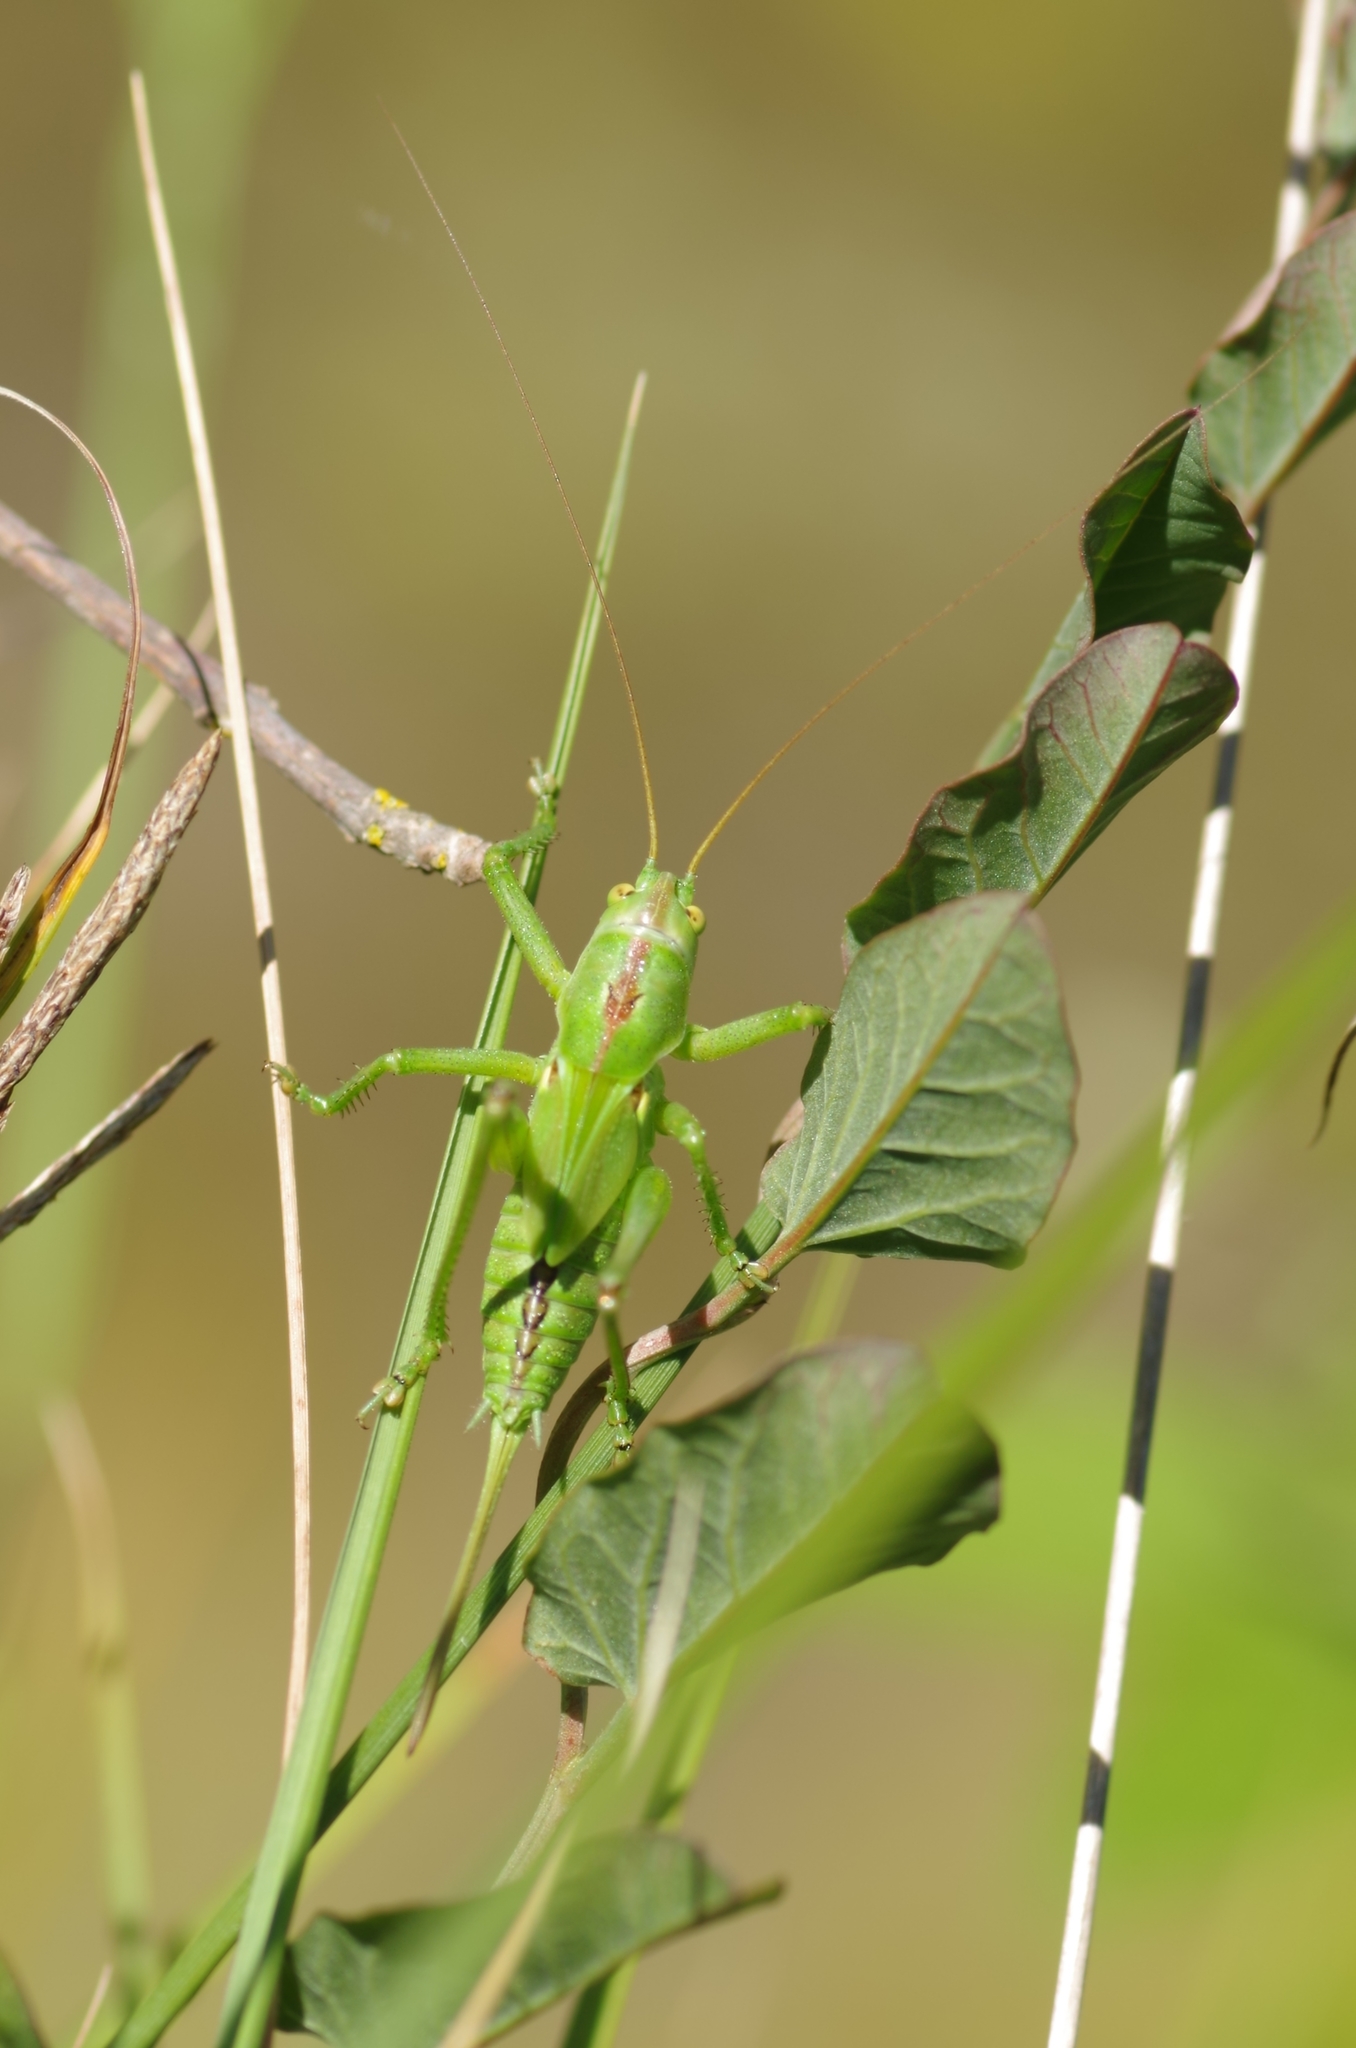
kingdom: Animalia
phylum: Arthropoda
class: Insecta
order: Orthoptera
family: Tettigoniidae
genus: Tettigonia
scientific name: Tettigonia viridissima
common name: Great green bush-cricket
